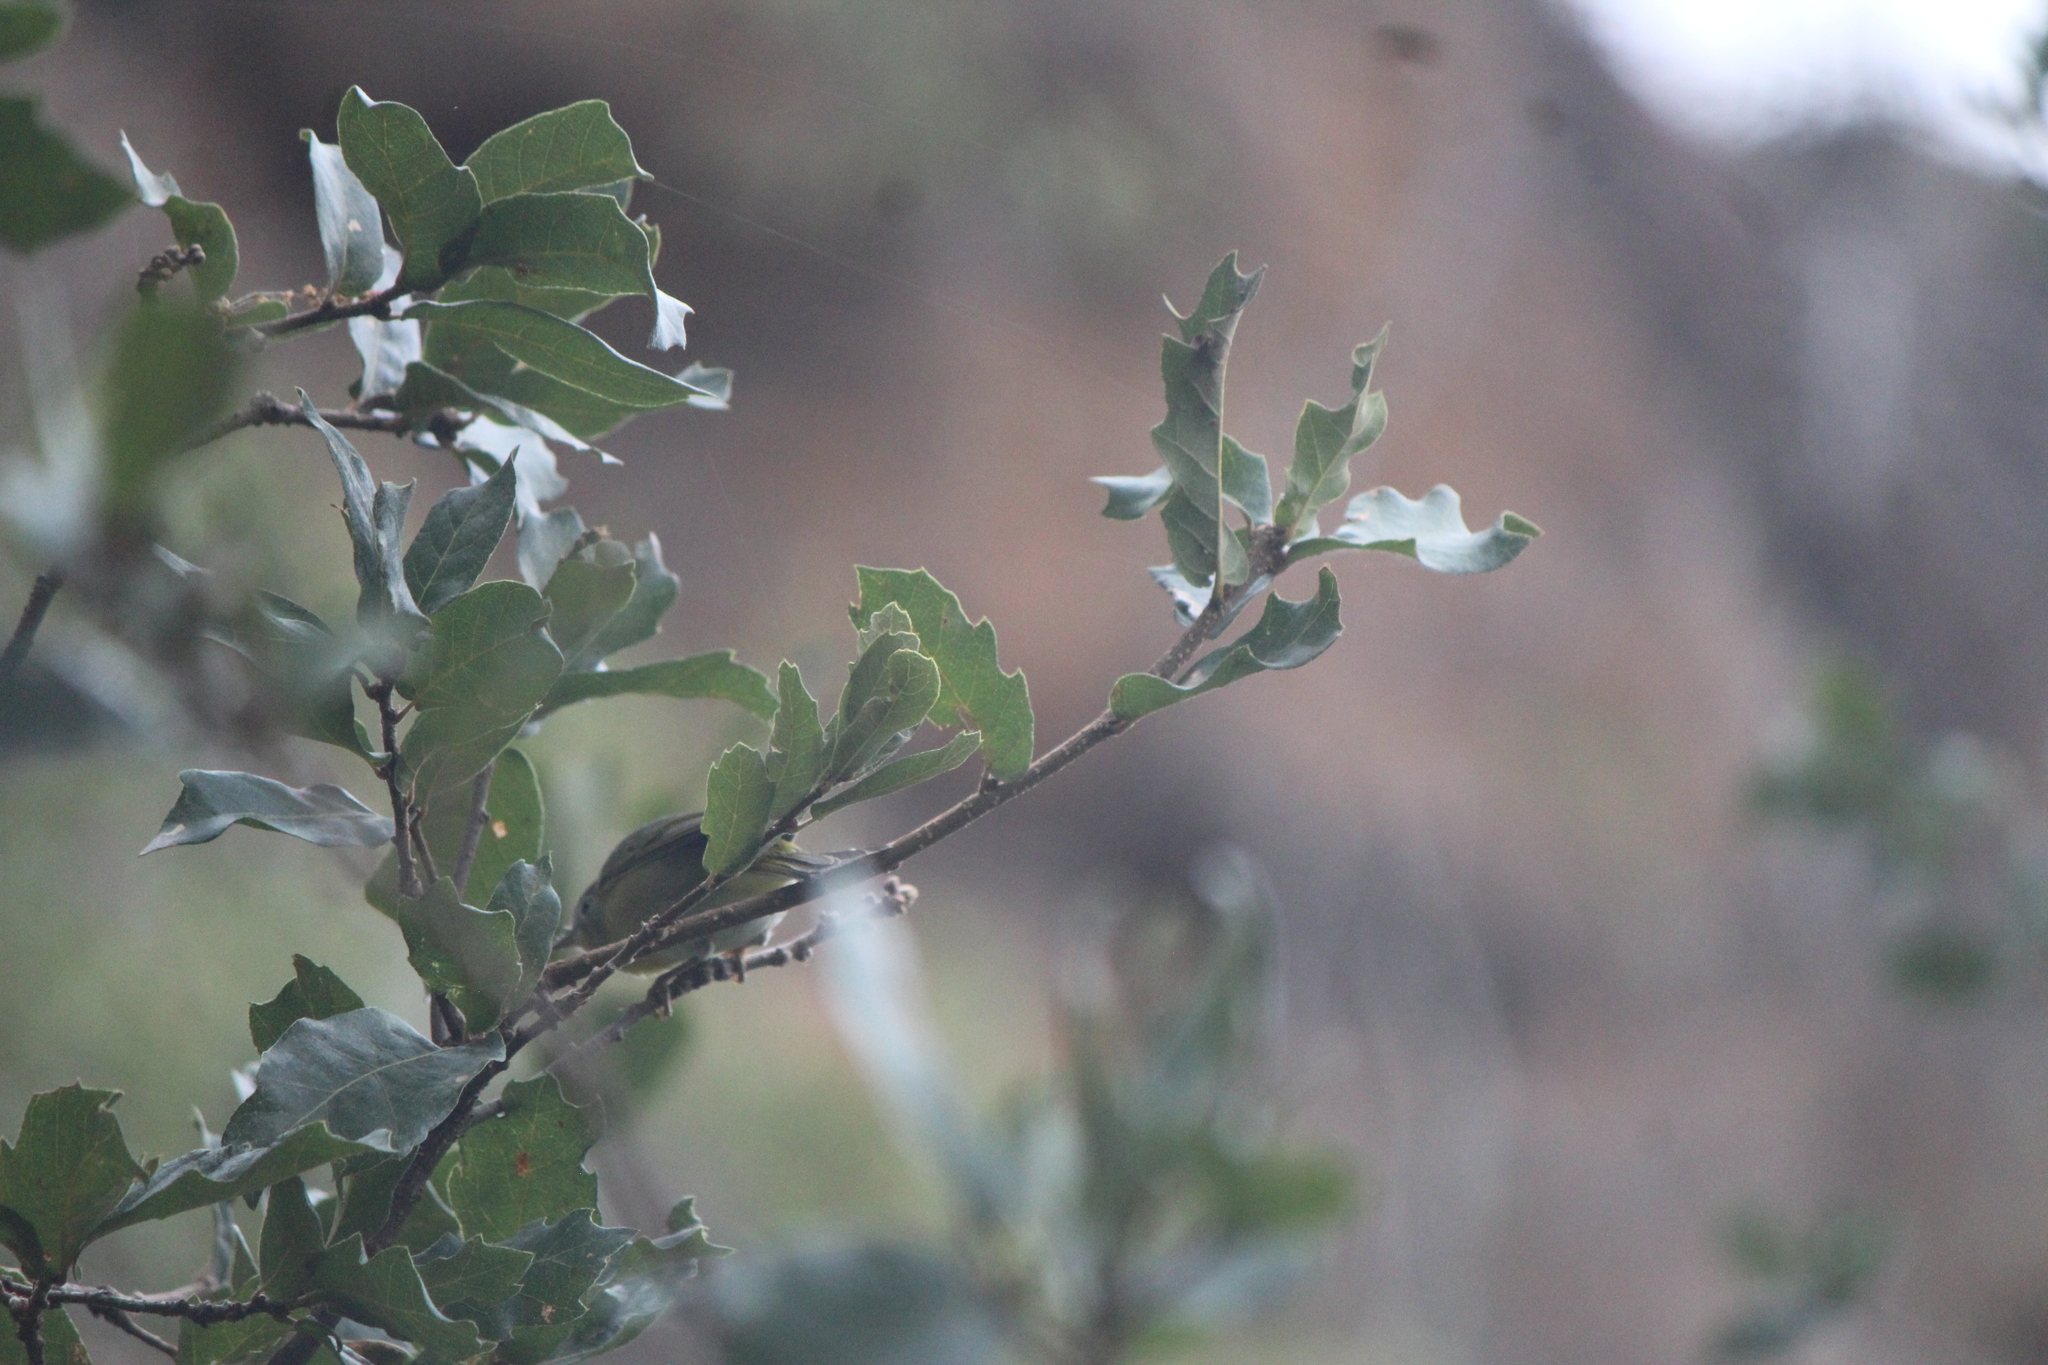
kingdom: Animalia
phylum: Chordata
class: Aves
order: Passeriformes
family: Parulidae
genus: Leiothlypis
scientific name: Leiothlypis ruficapilla
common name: Nashville warbler
